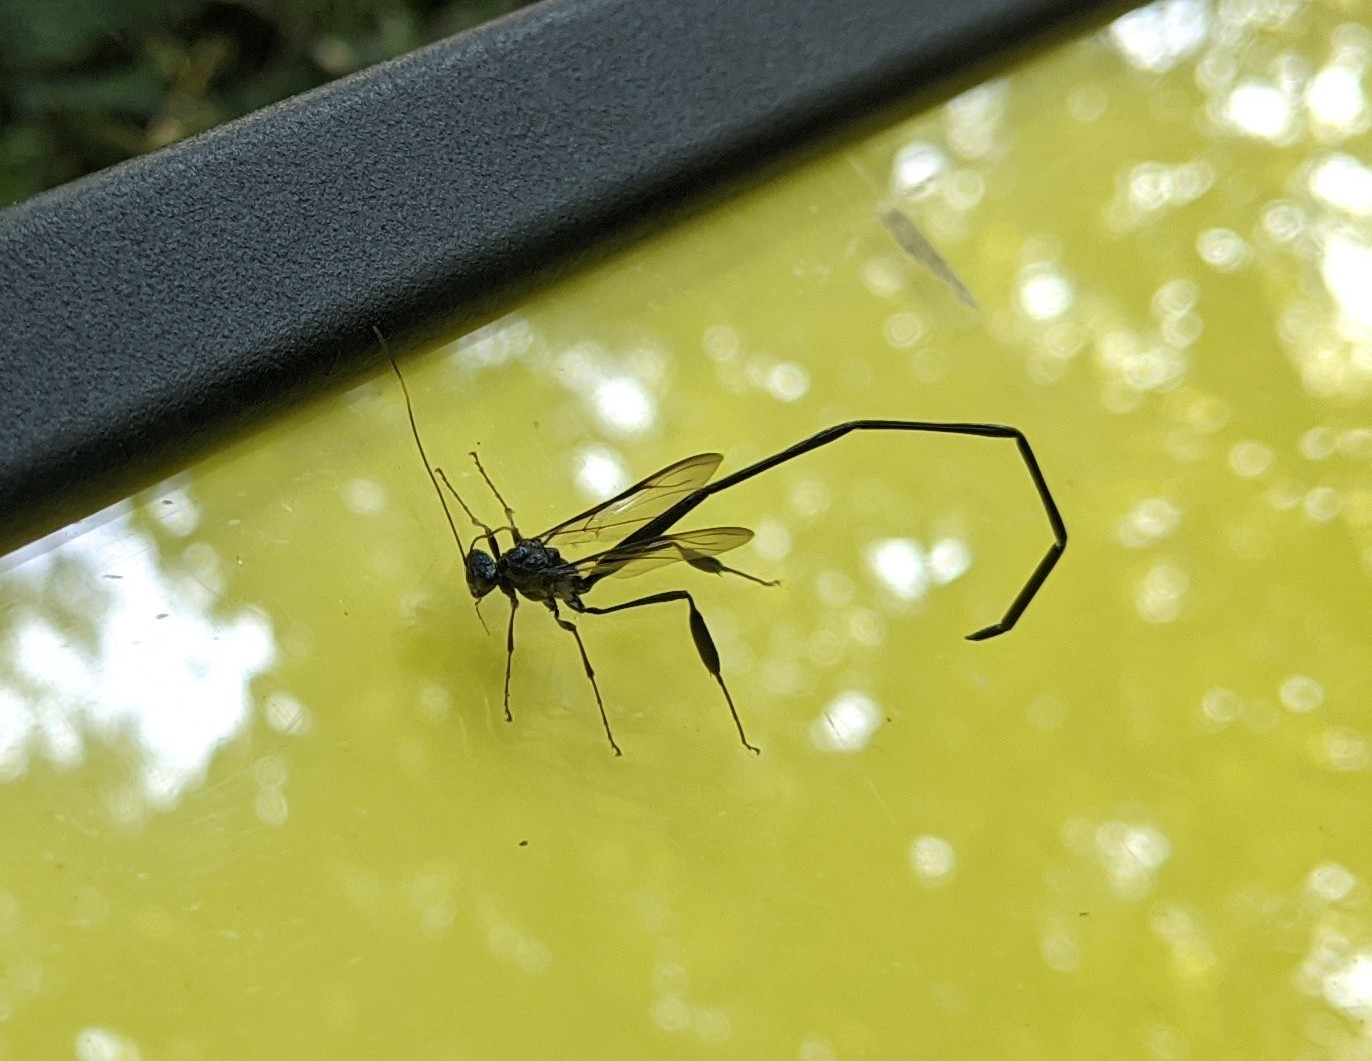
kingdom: Animalia
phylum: Arthropoda
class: Insecta
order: Hymenoptera
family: Pelecinidae
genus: Pelecinus
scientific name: Pelecinus polyturator
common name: American pelecinid wasp
